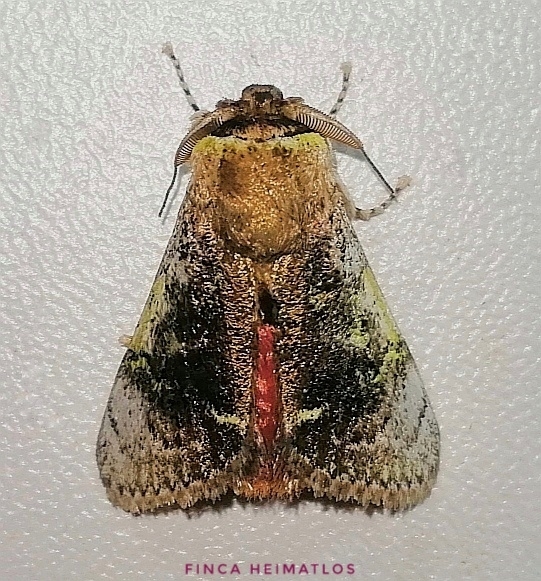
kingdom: Animalia
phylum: Arthropoda
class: Insecta
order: Lepidoptera
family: Aididae
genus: Aidos
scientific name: Aidos yamouna
